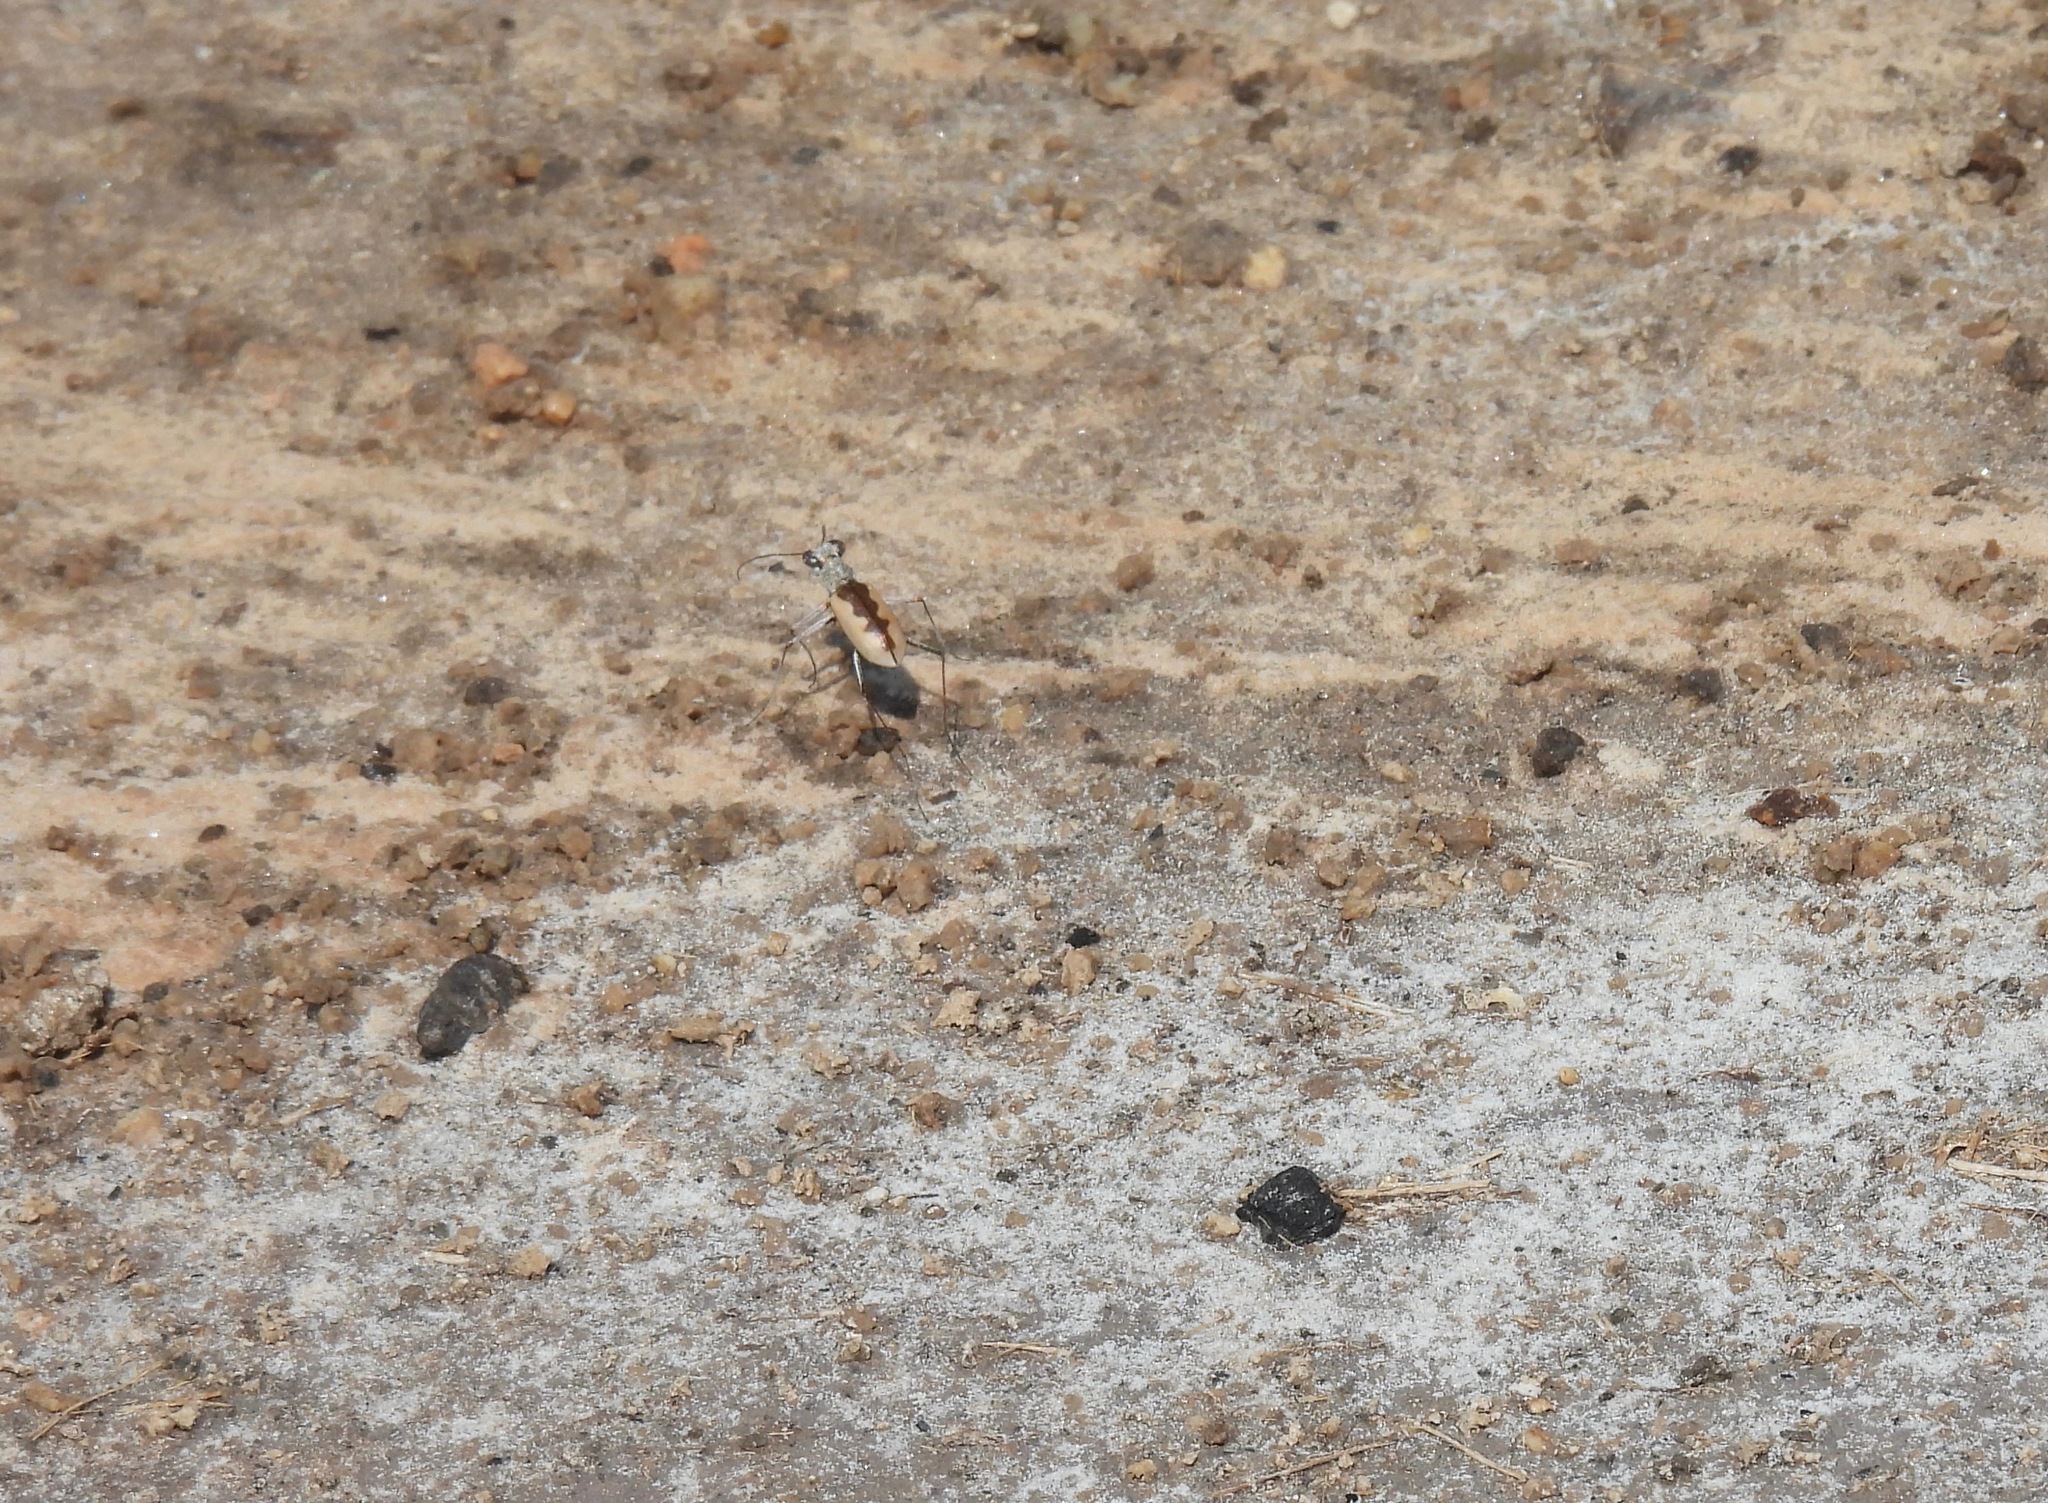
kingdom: Animalia
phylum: Arthropoda
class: Insecta
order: Coleoptera
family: Carabidae
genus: Eunota
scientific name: Eunota togata
